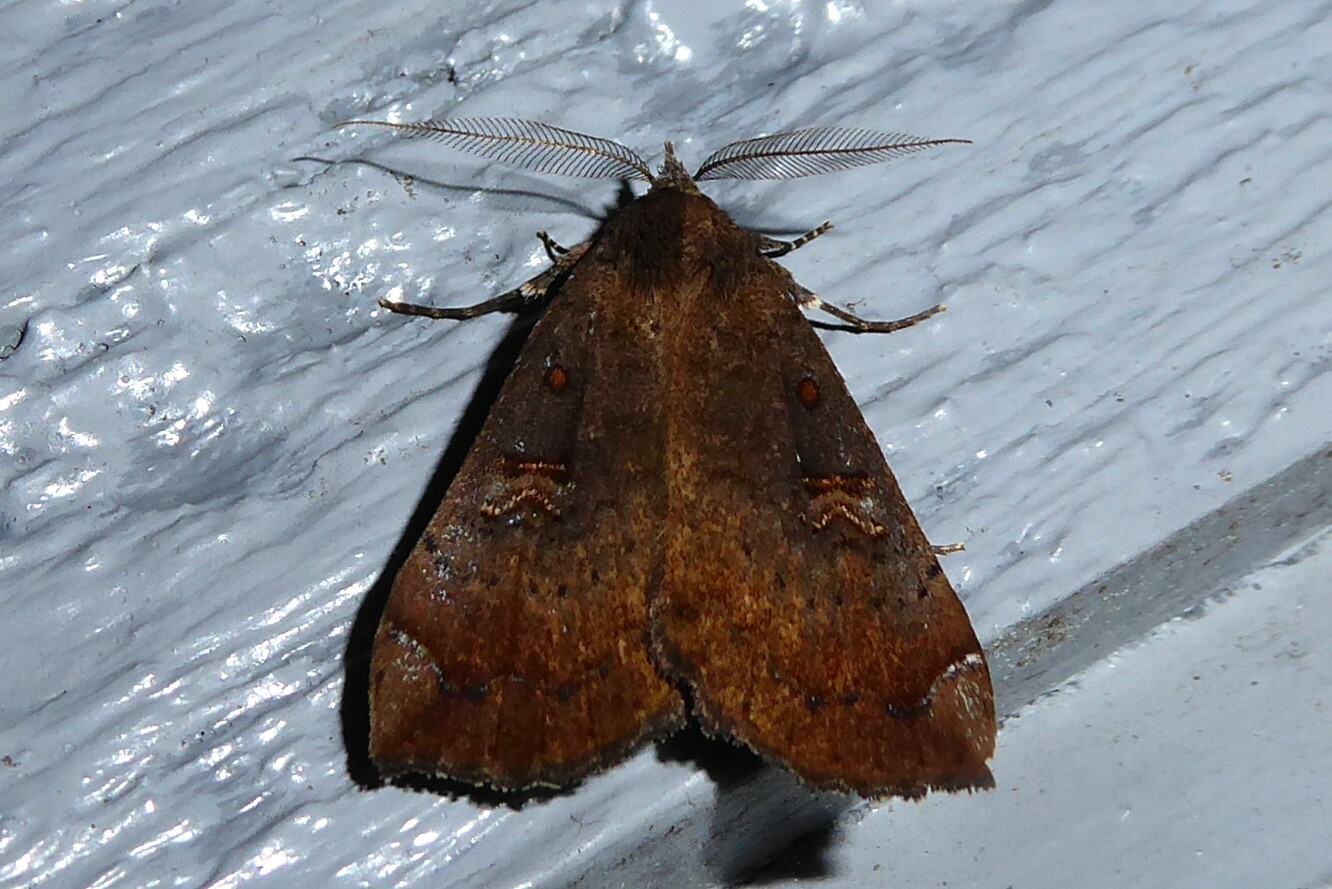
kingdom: Animalia
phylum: Arthropoda
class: Insecta
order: Lepidoptera
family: Erebidae
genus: Rhapsa
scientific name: Rhapsa scotosialis
